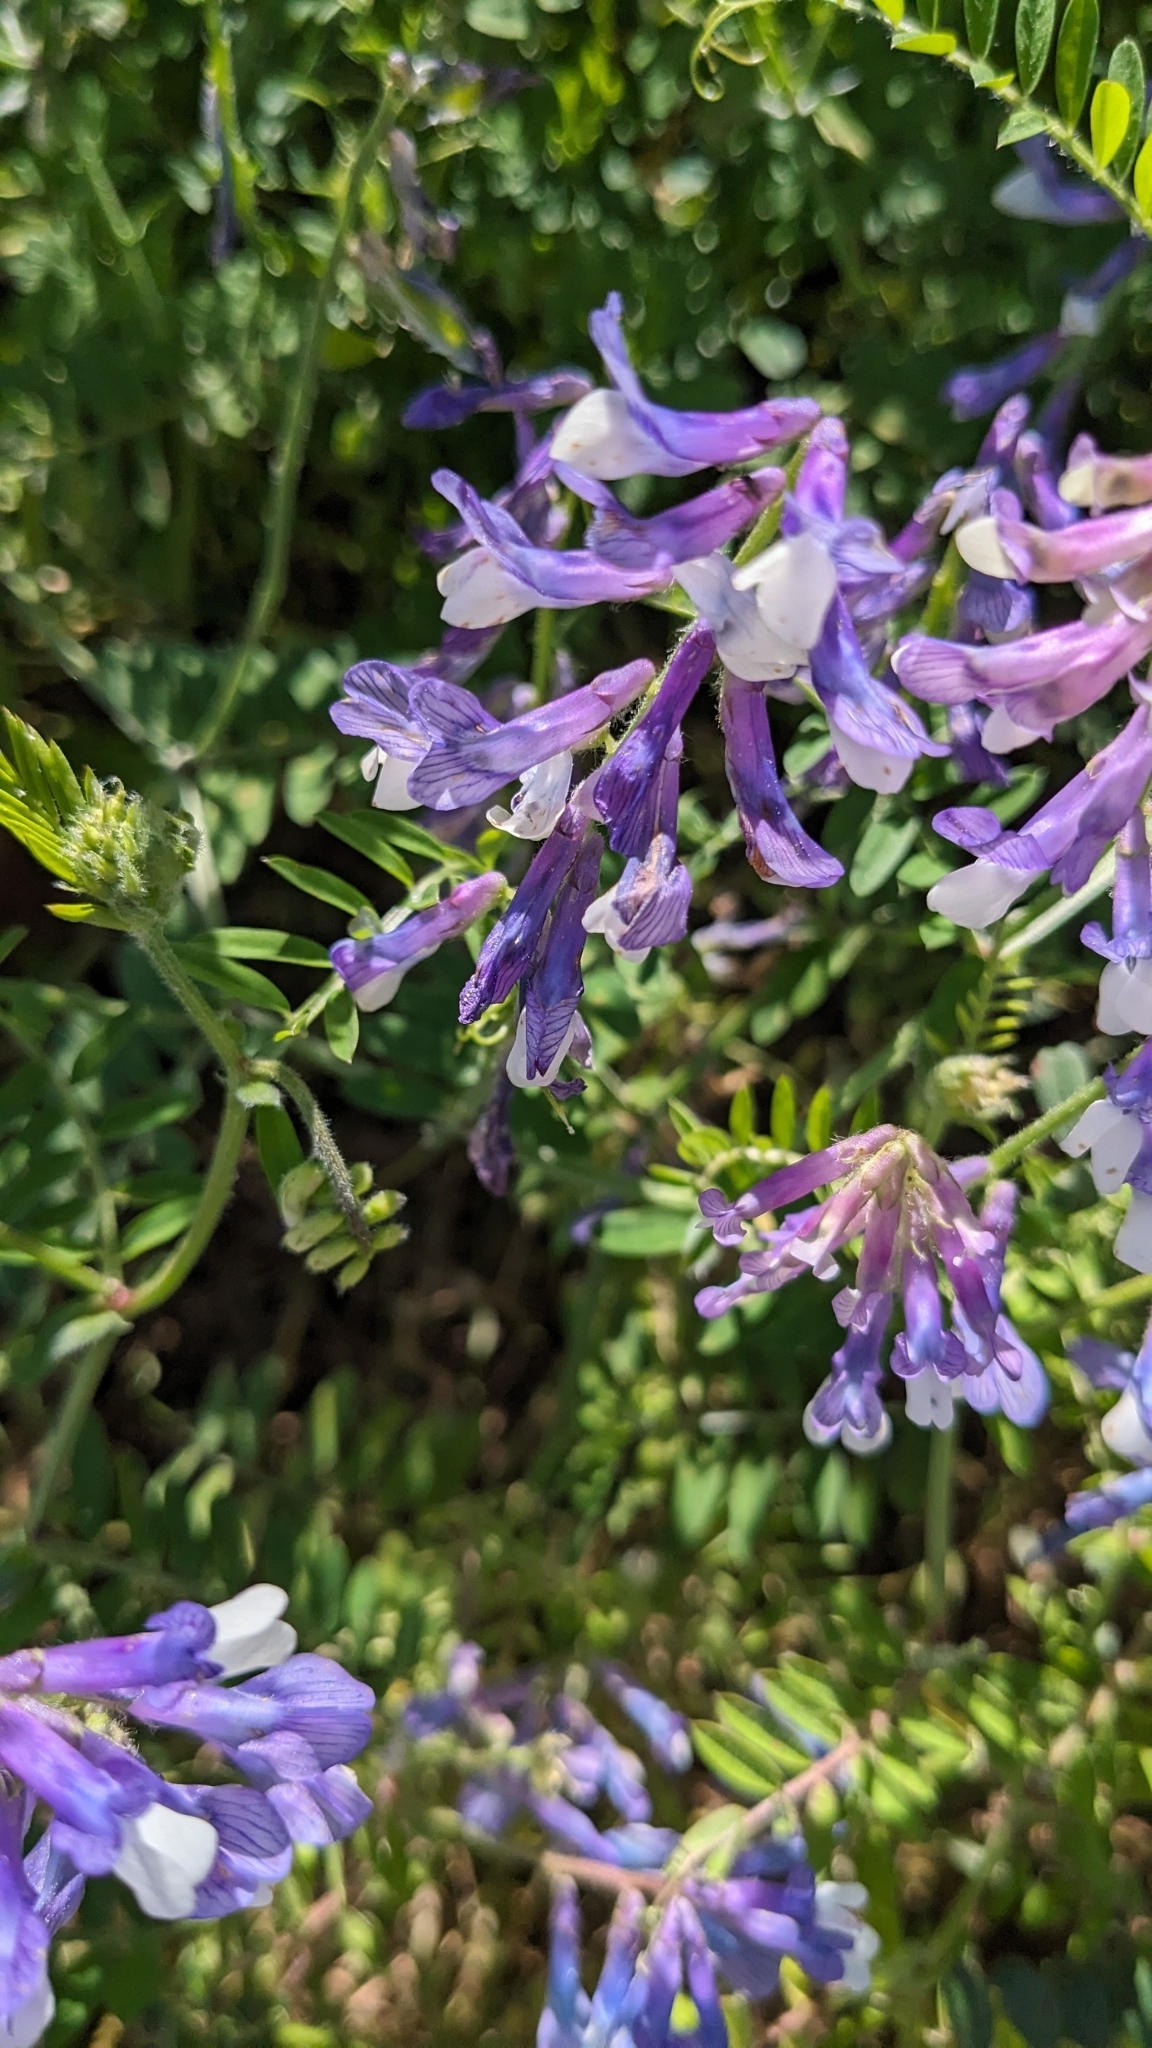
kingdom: Plantae
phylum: Tracheophyta
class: Magnoliopsida
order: Fabales
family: Fabaceae
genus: Vicia
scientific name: Vicia villosa
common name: Fodder vetch
